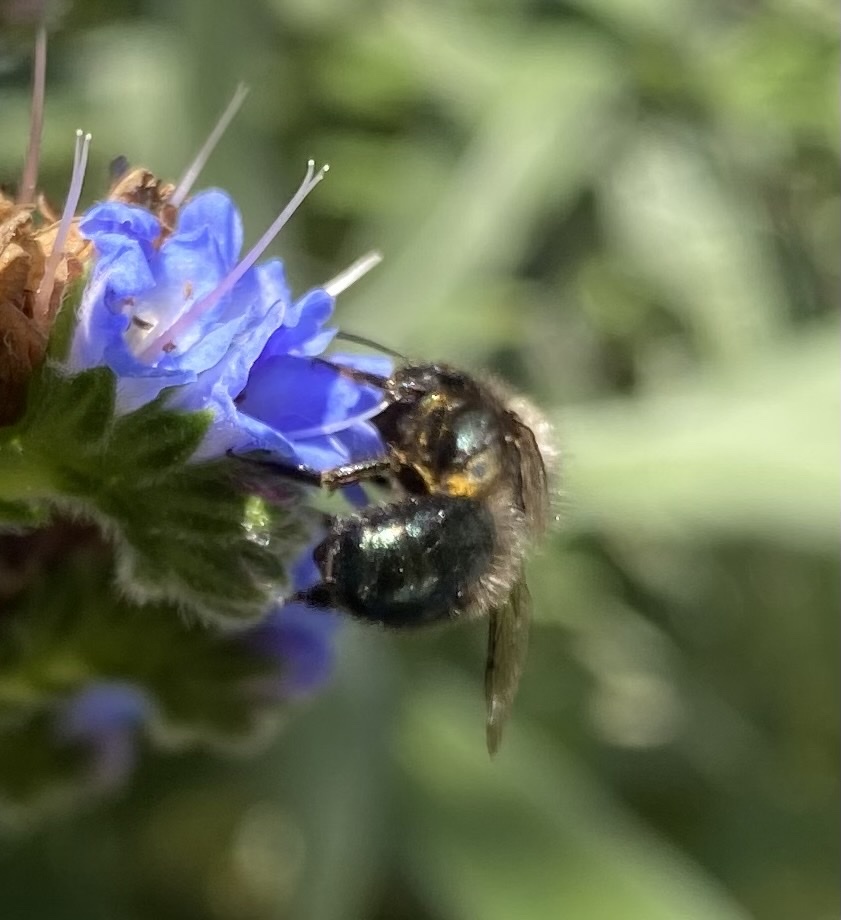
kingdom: Animalia
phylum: Arthropoda
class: Insecta
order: Hymenoptera
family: Megachilidae
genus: Osmia
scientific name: Osmia lignaria
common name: Blue orchard bee
